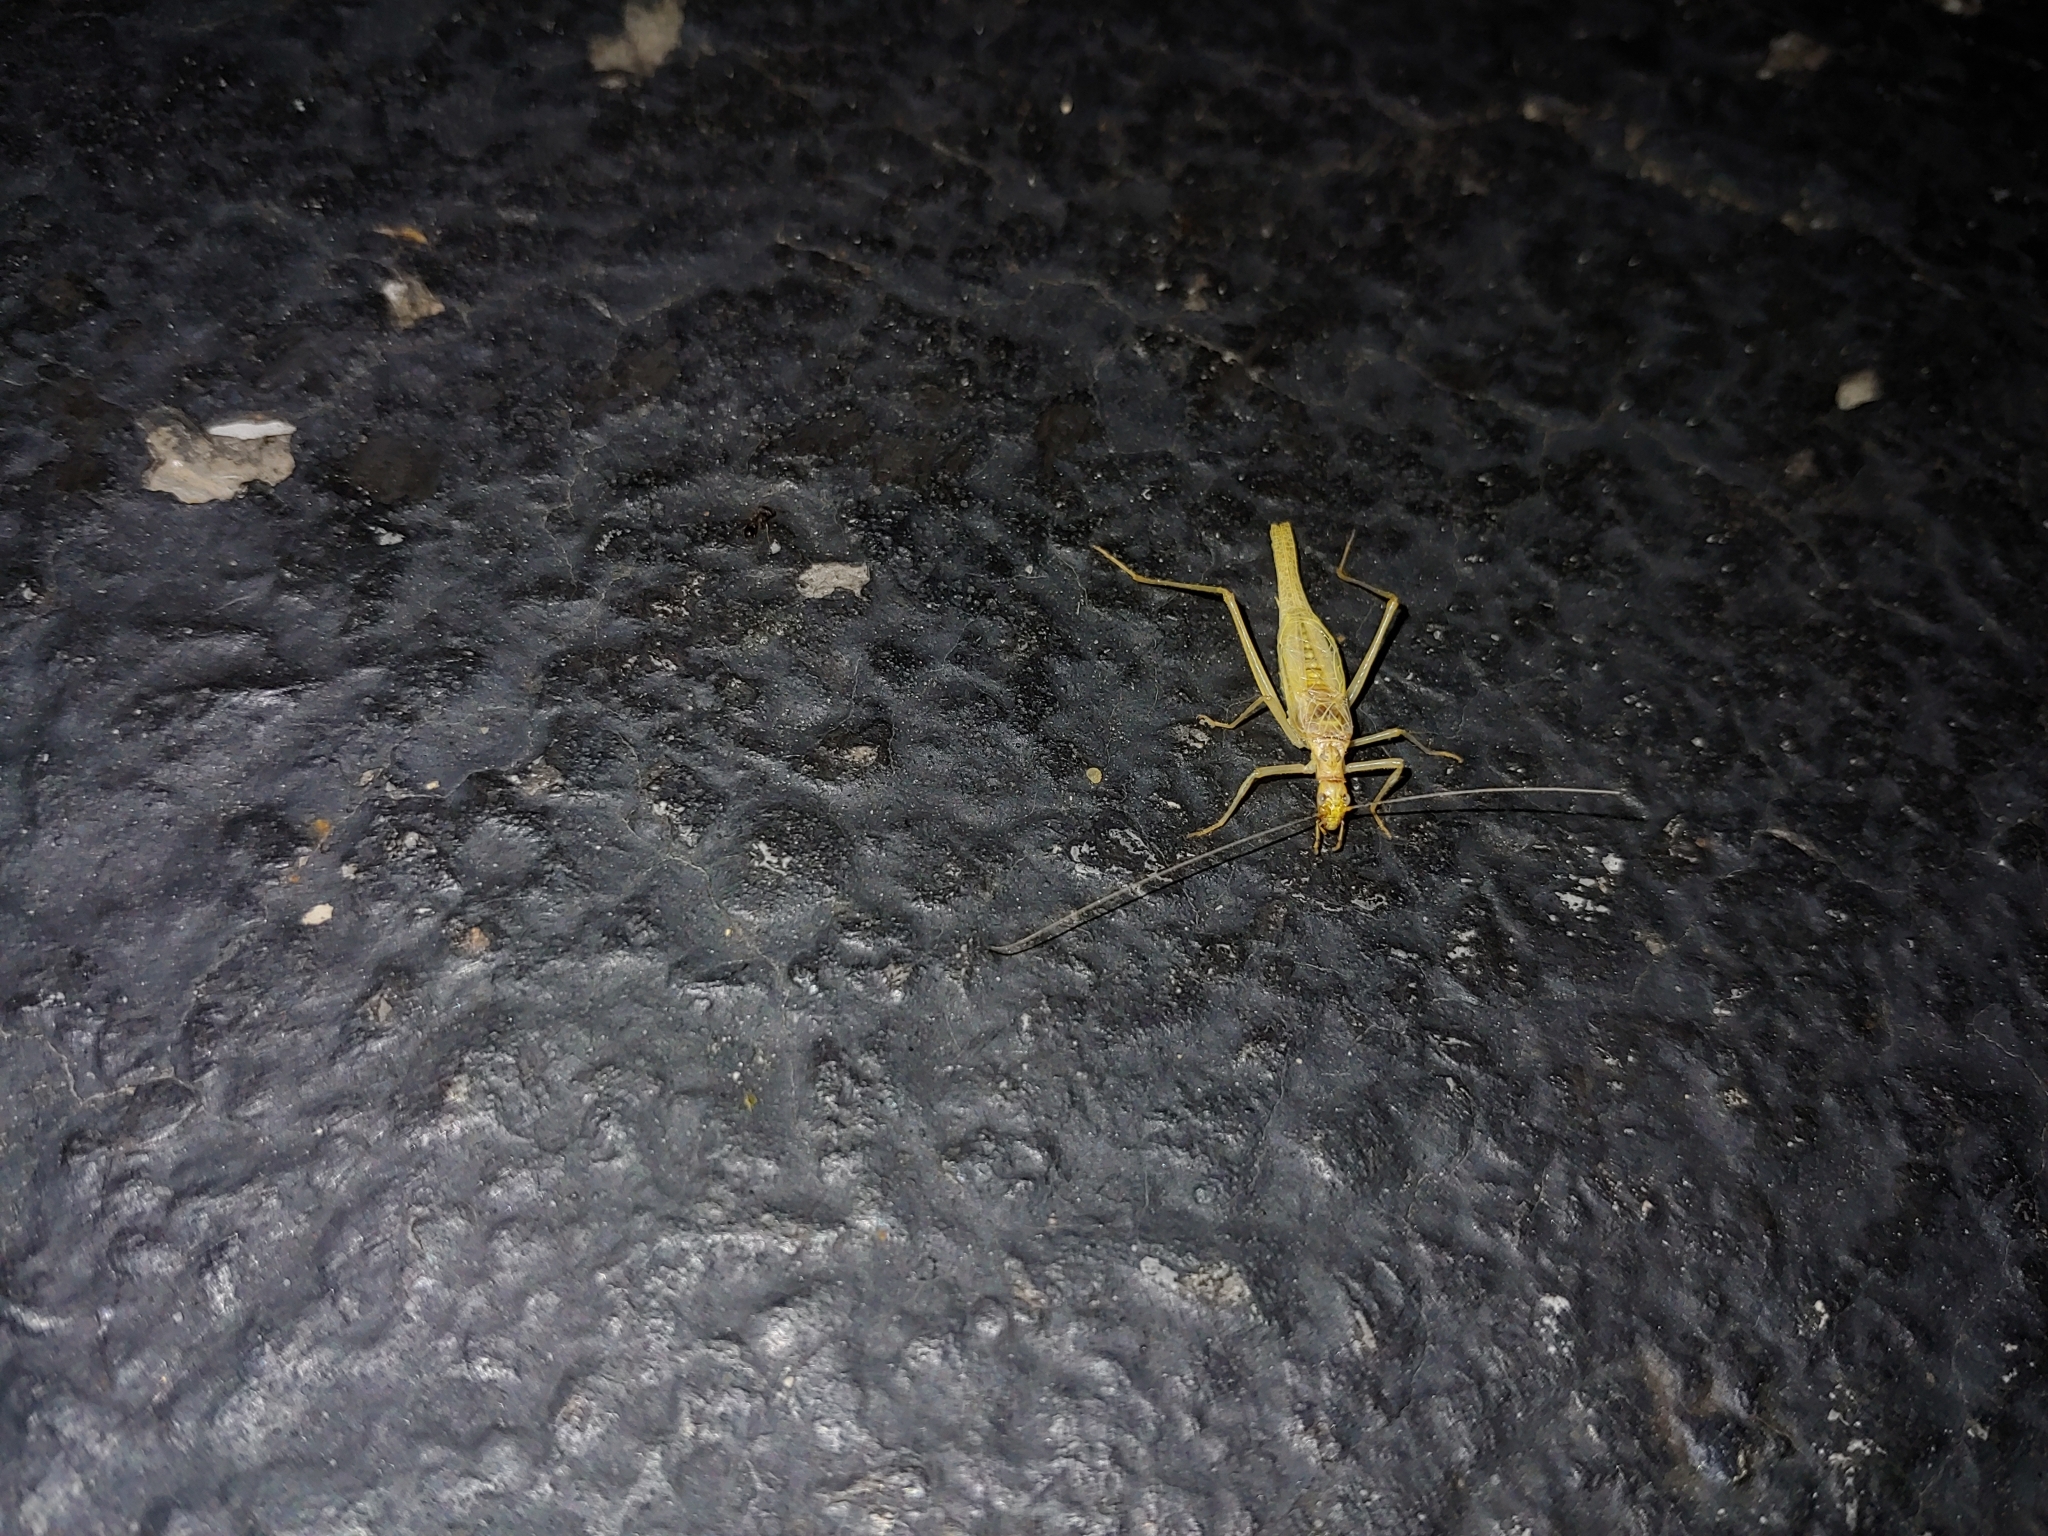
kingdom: Animalia
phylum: Arthropoda
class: Insecta
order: Orthoptera
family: Gryllidae
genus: Neoxabea
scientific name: Neoxabea bipunctata
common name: Two-spotted tree cricket
